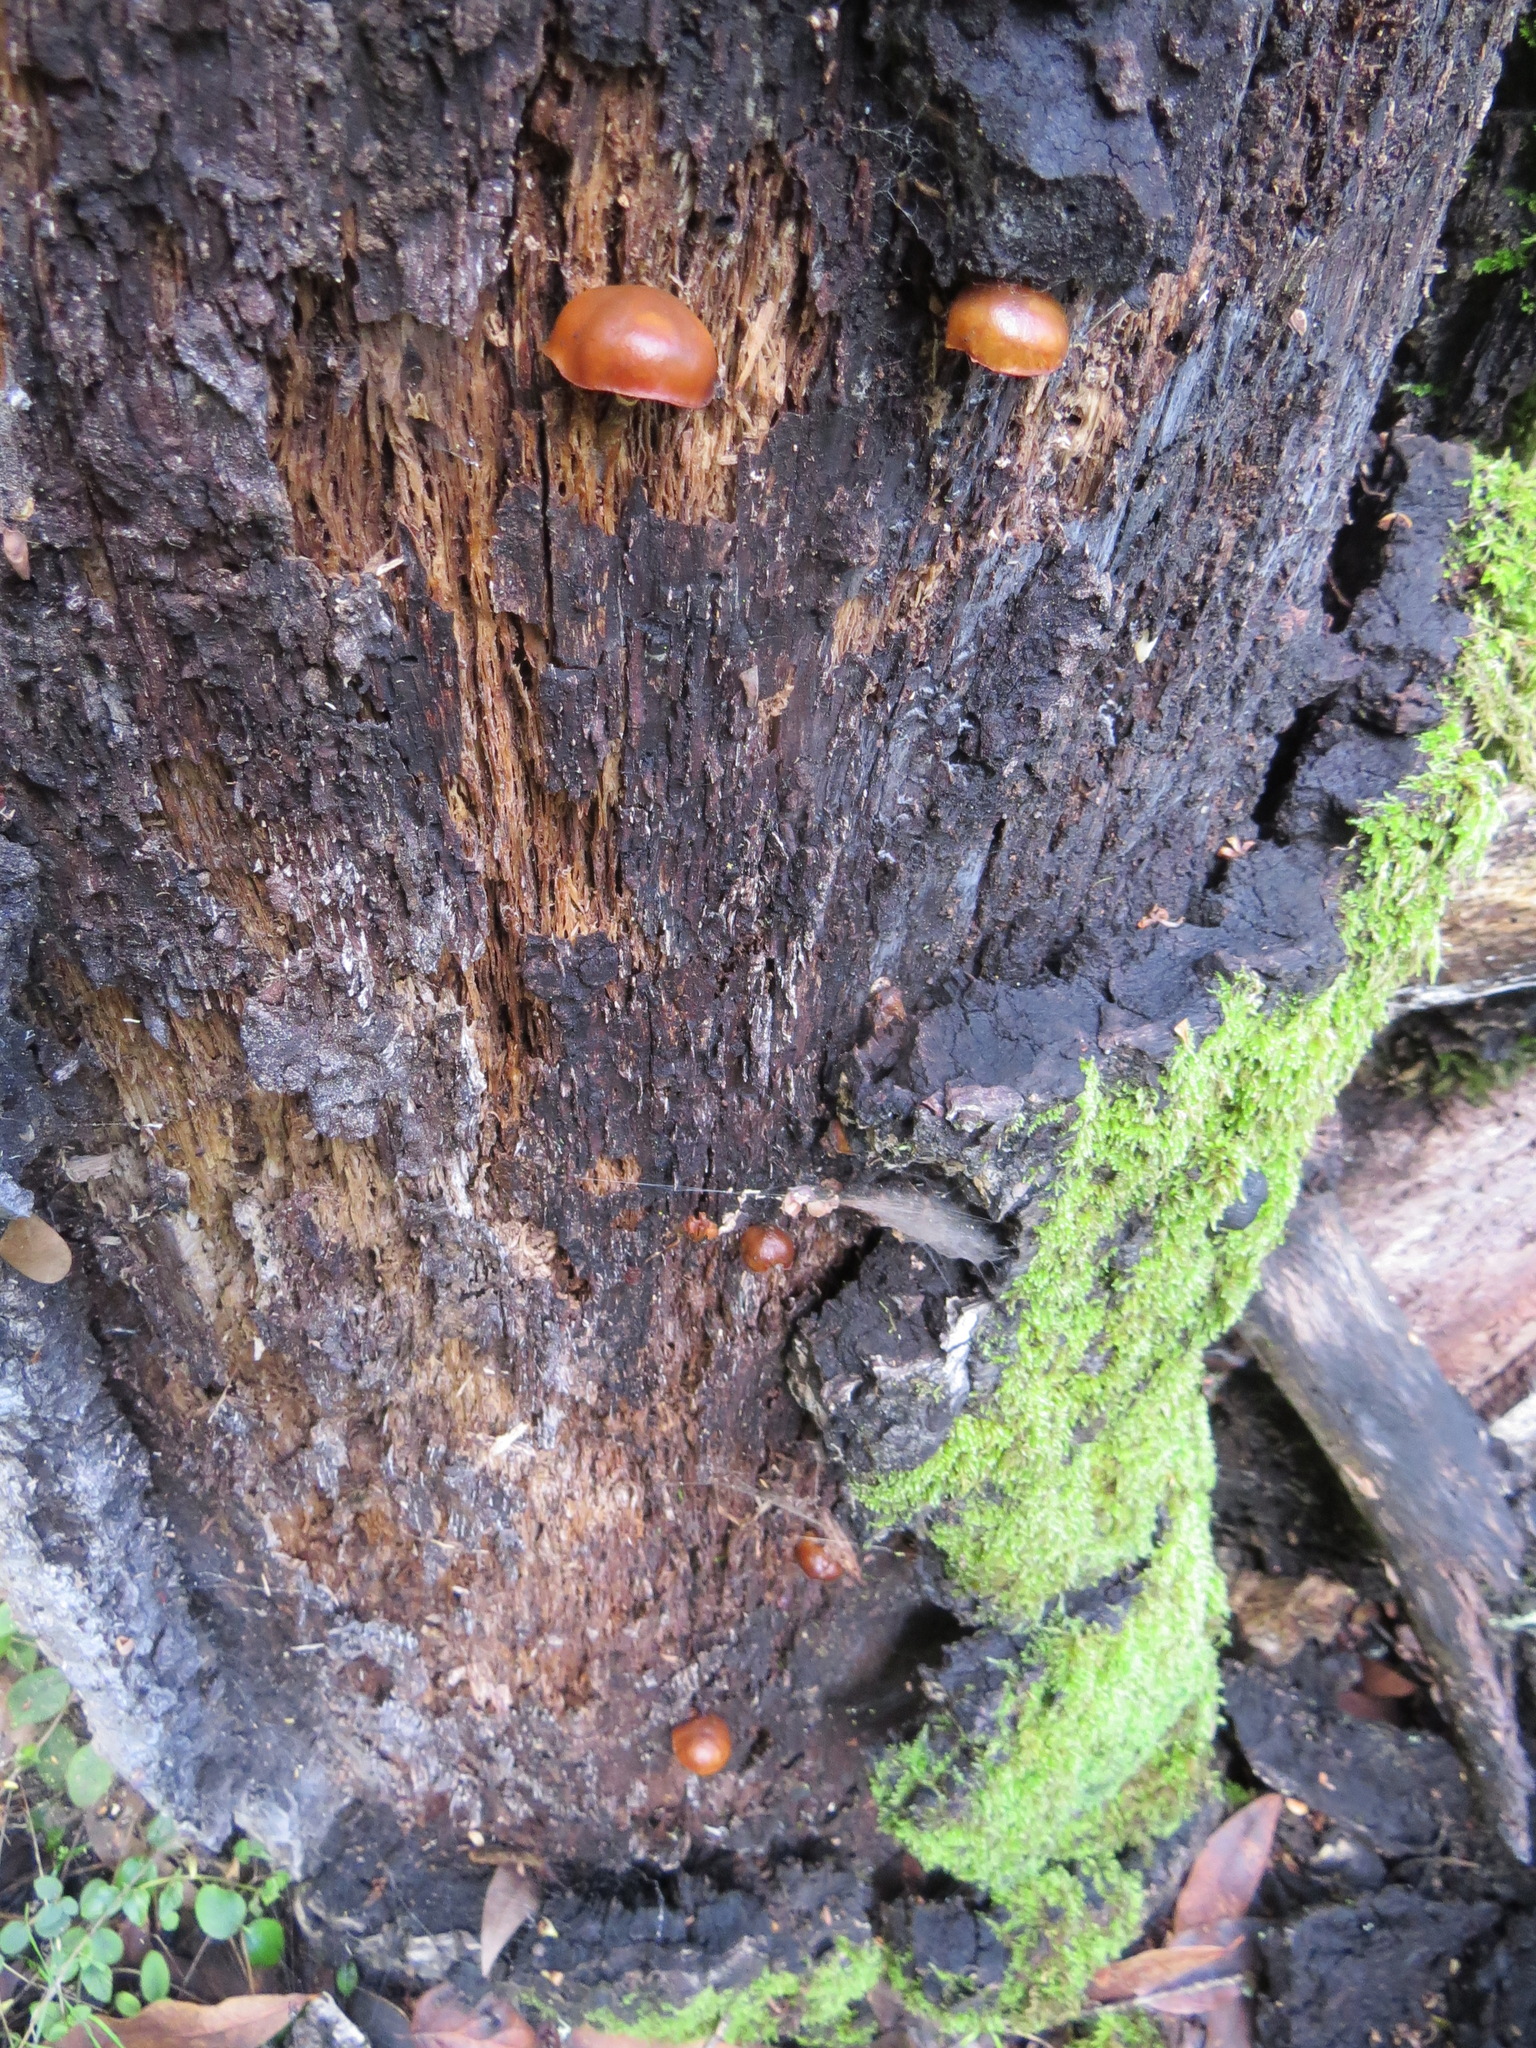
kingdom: Fungi
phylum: Basidiomycota
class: Agaricomycetes
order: Agaricales
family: Hymenogastraceae
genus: Galerina
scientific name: Galerina marginata
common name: Funeral bell
